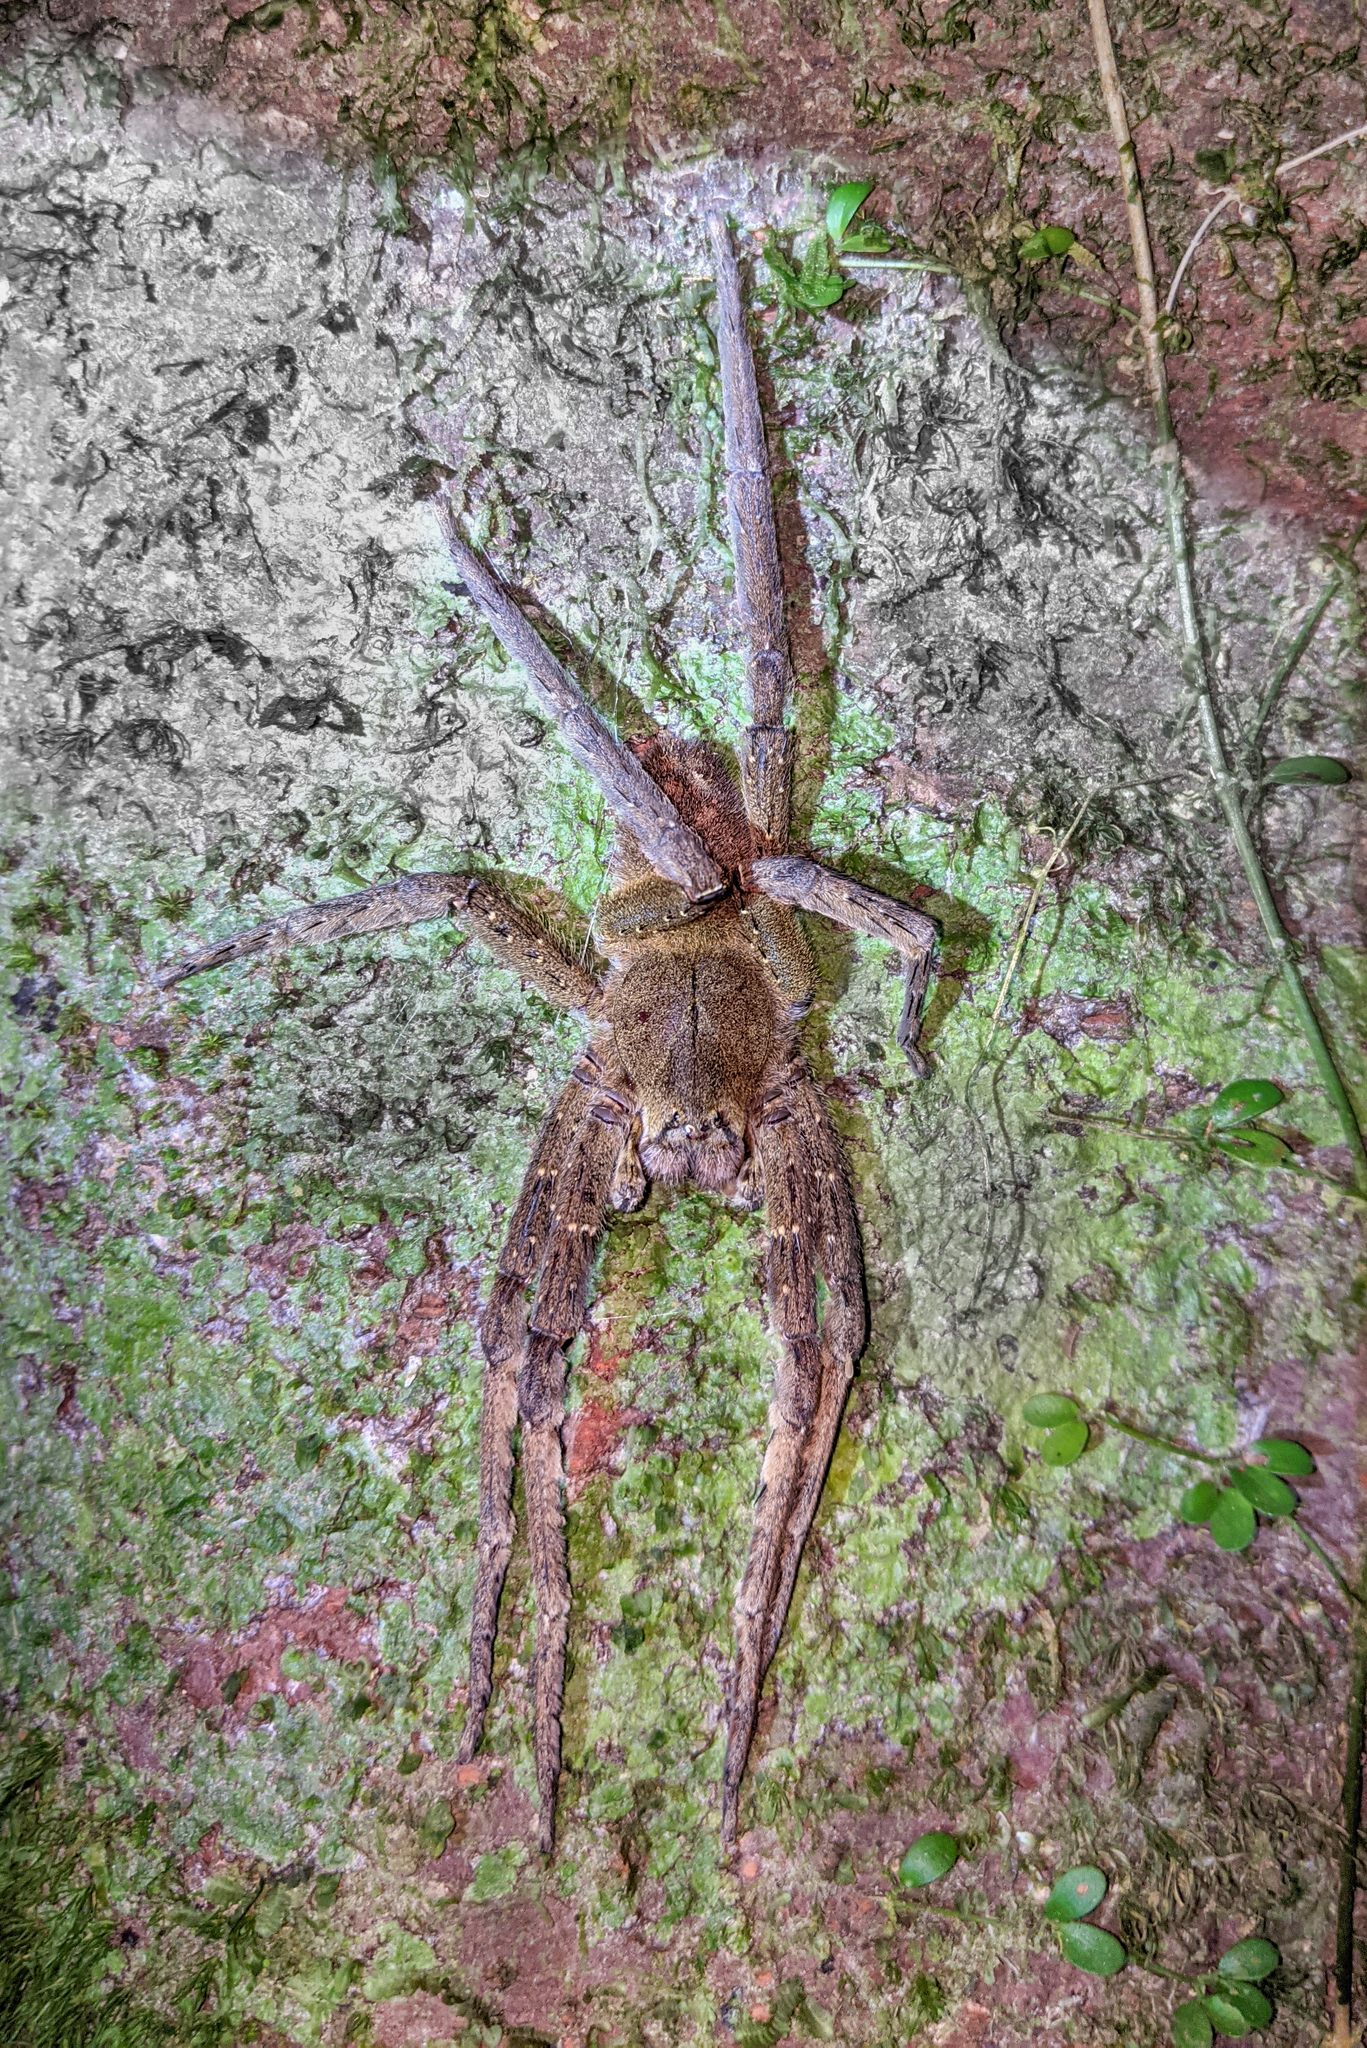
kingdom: Animalia
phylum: Arthropoda
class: Arachnida
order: Araneae
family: Ctenidae
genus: Phoneutria
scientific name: Phoneutria fera
